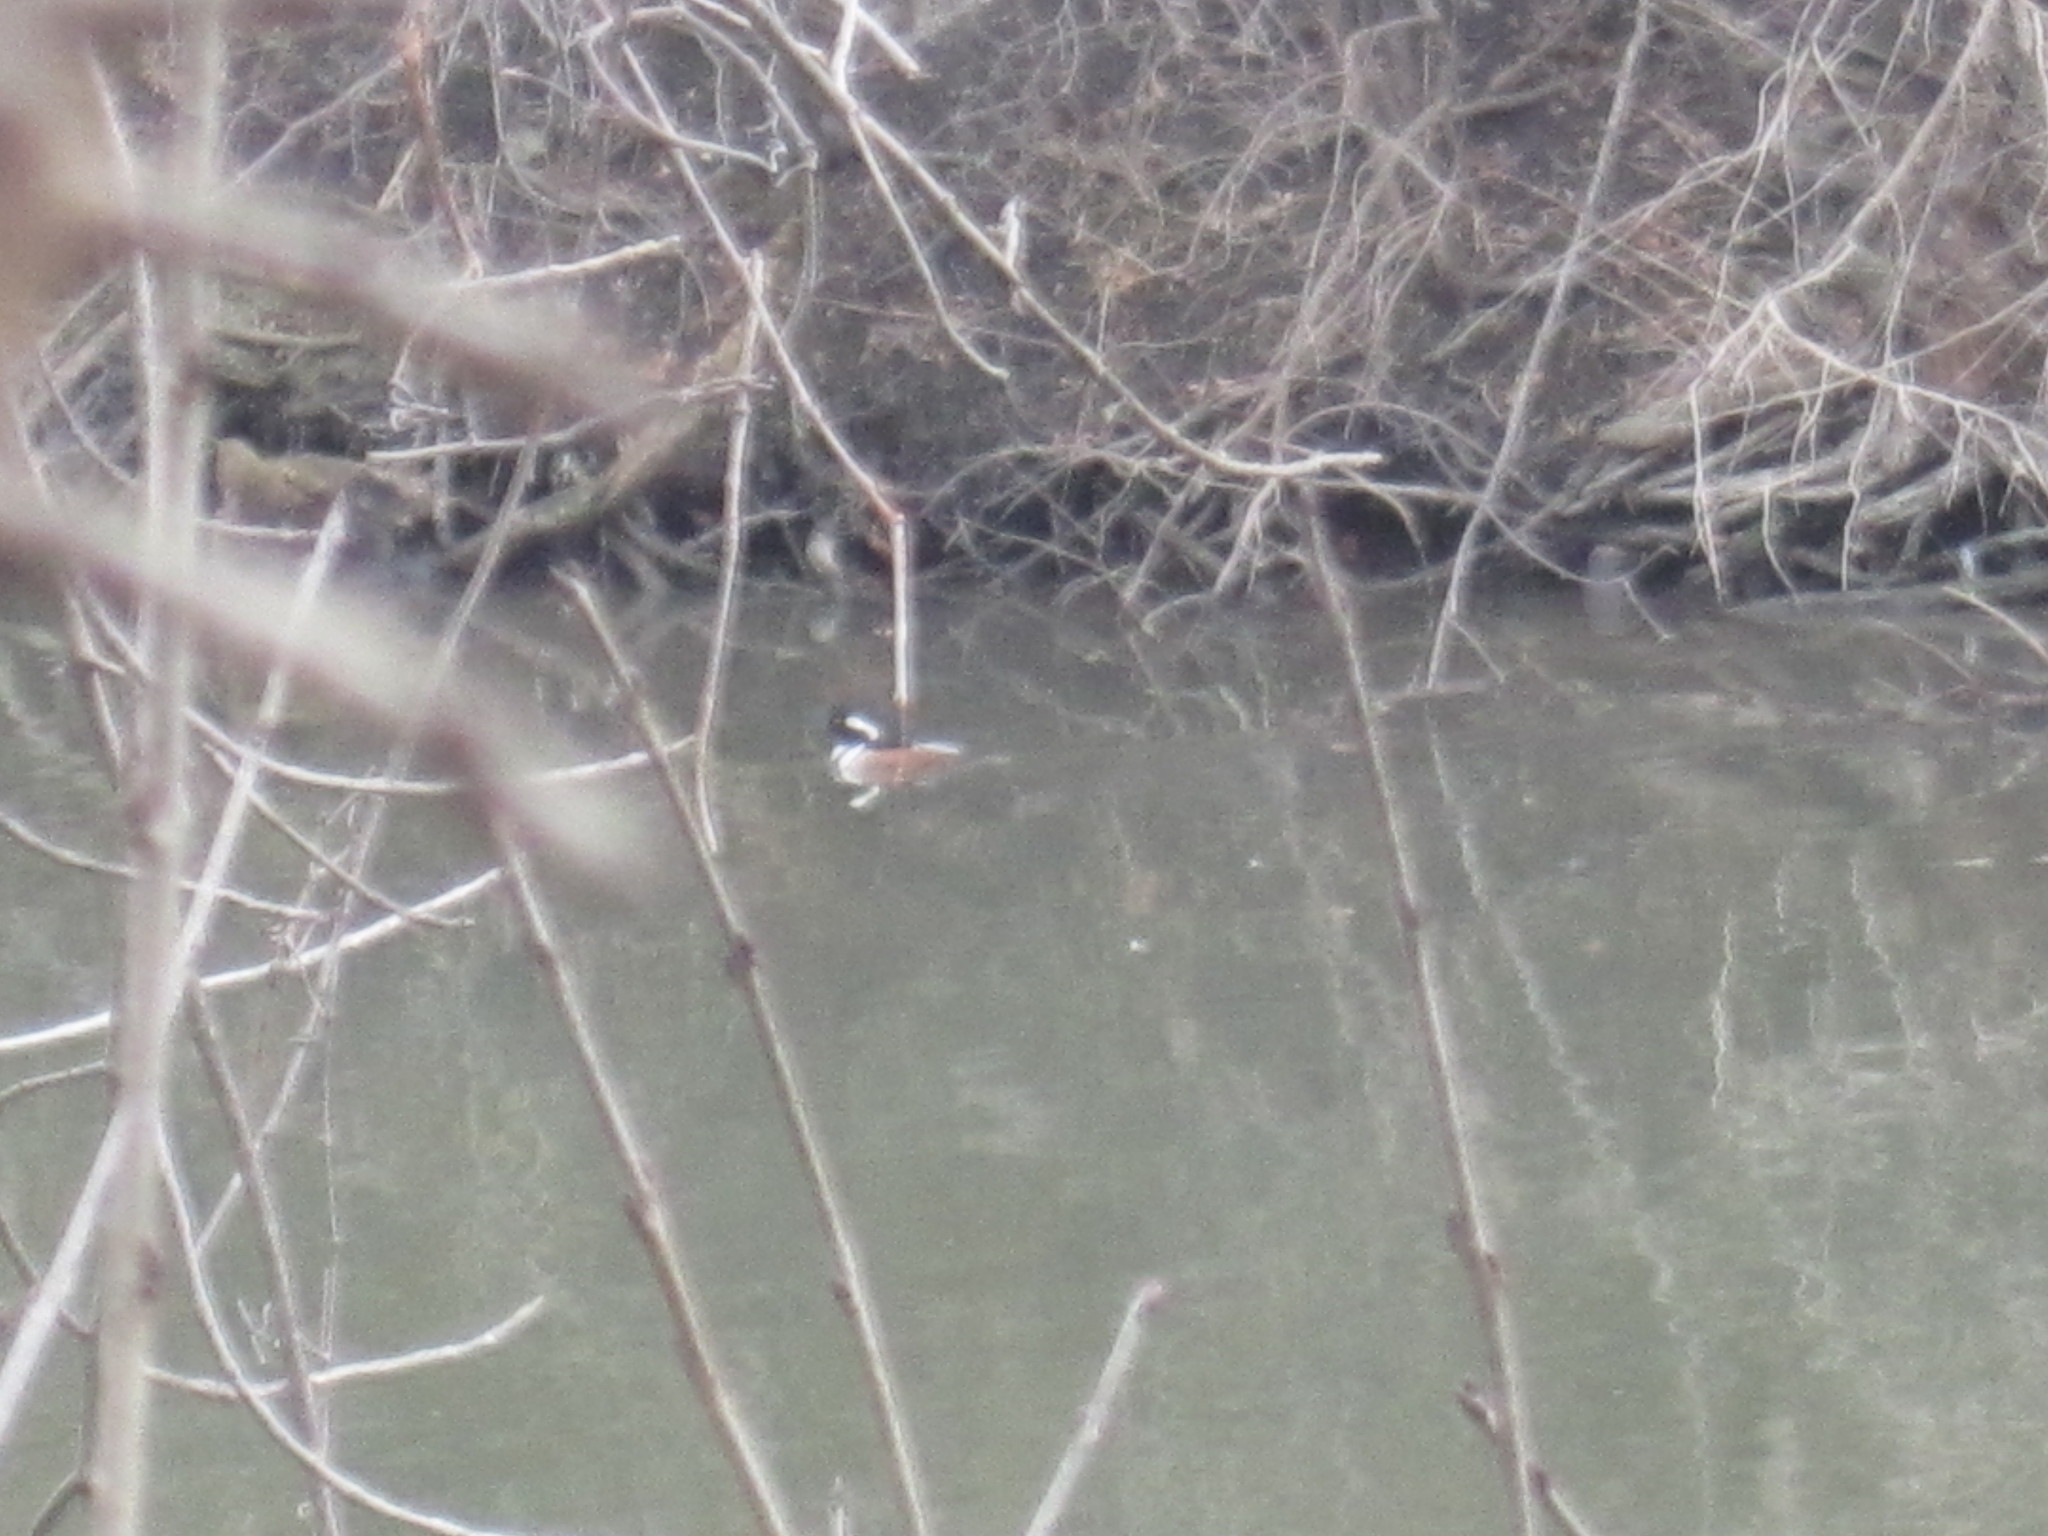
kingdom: Animalia
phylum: Chordata
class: Aves
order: Anseriformes
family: Anatidae
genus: Lophodytes
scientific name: Lophodytes cucullatus
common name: Hooded merganser
